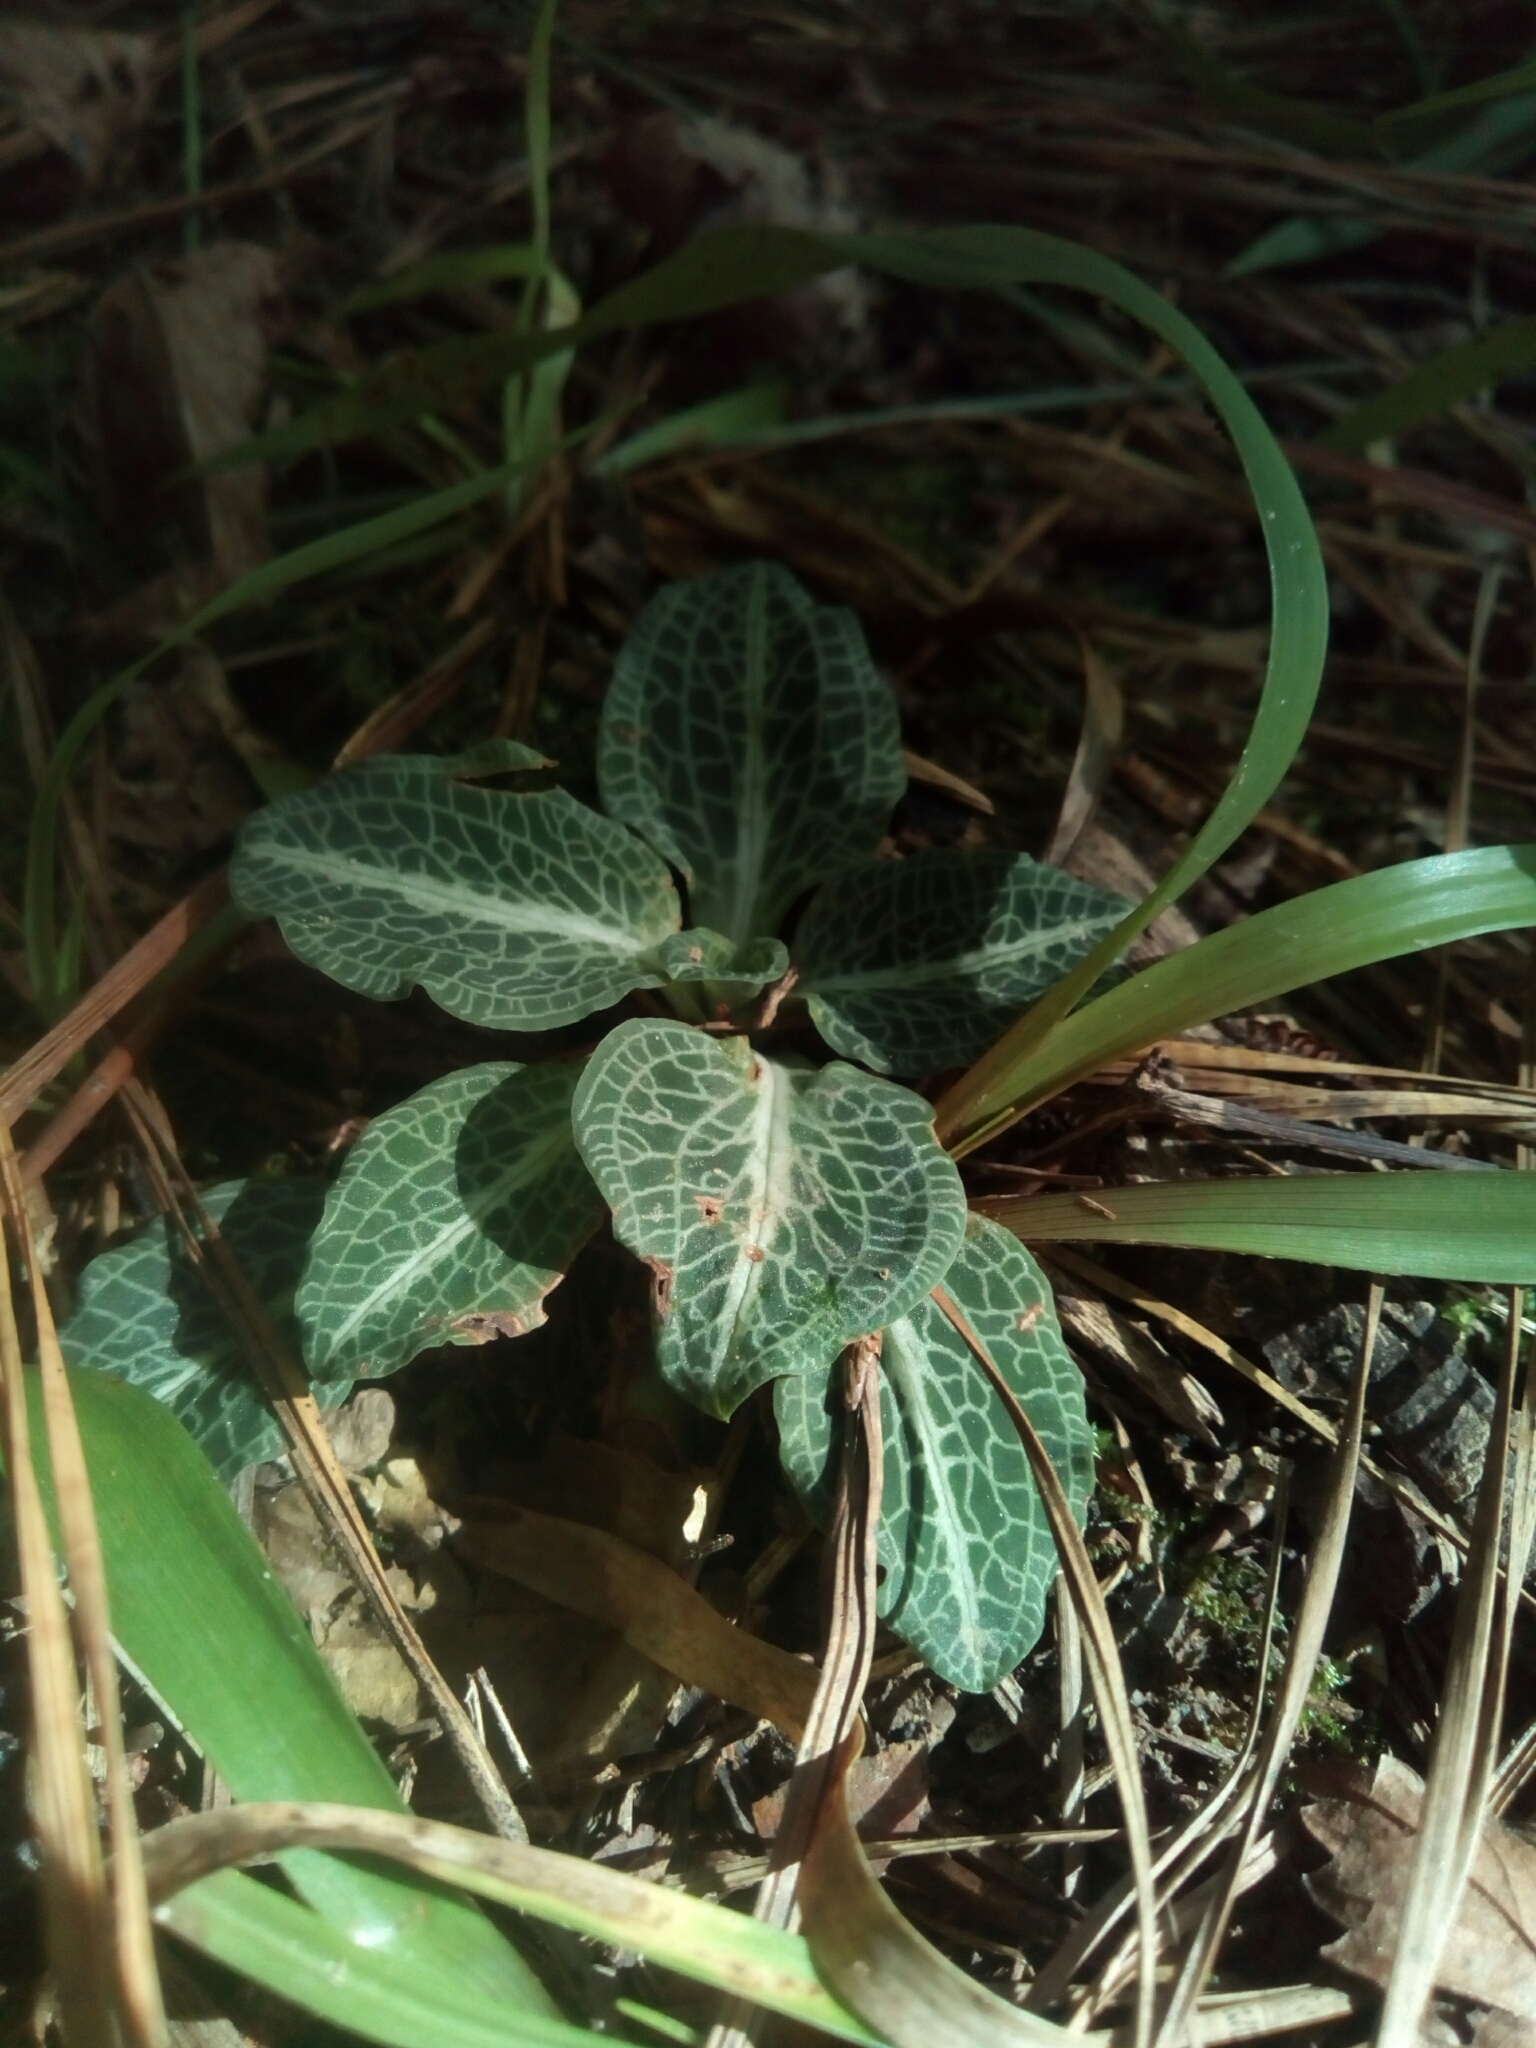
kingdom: Plantae
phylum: Tracheophyta
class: Liliopsida
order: Asparagales
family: Orchidaceae
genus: Goodyera
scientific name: Goodyera pubescens
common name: Downy rattlesnake-plantain
